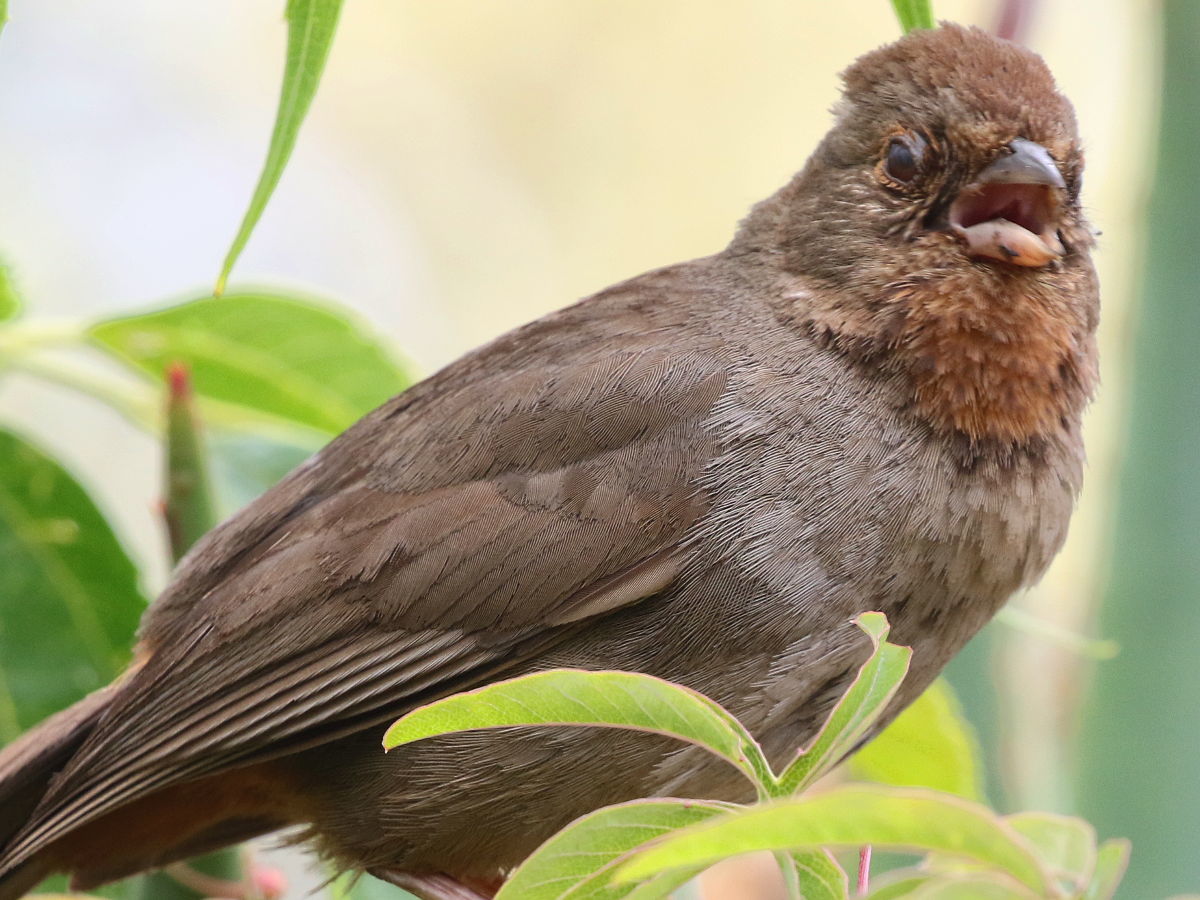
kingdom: Animalia
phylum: Chordata
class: Aves
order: Passeriformes
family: Passerellidae
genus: Melozone
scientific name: Melozone crissalis
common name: California towhee
